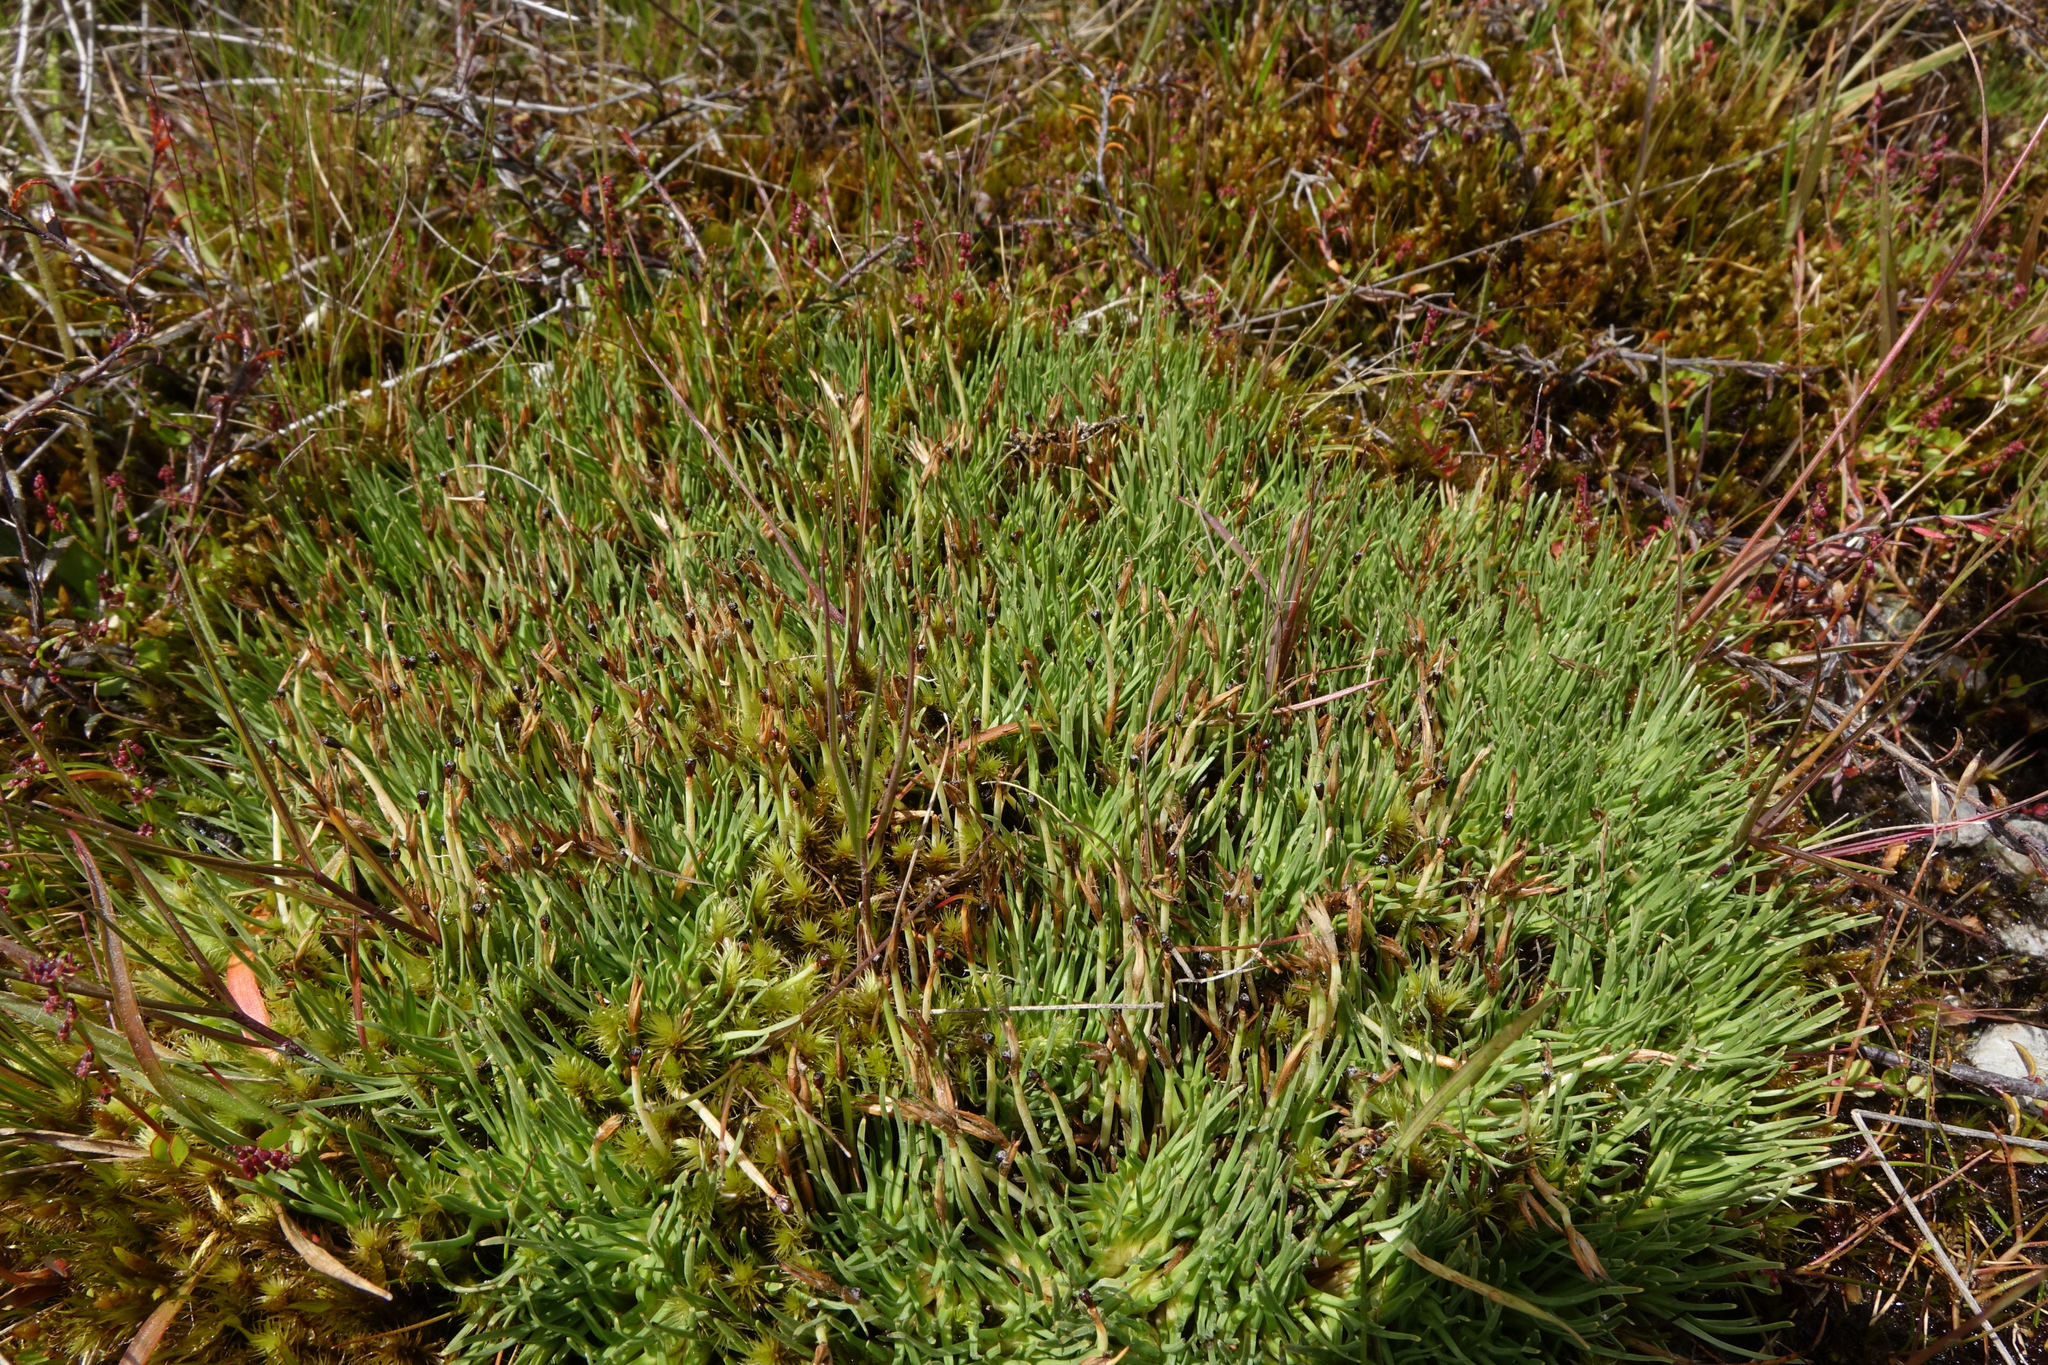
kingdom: Plantae
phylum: Tracheophyta
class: Liliopsida
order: Poales
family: Cyperaceae
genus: Oreobolus
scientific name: Oreobolus pectinatus
